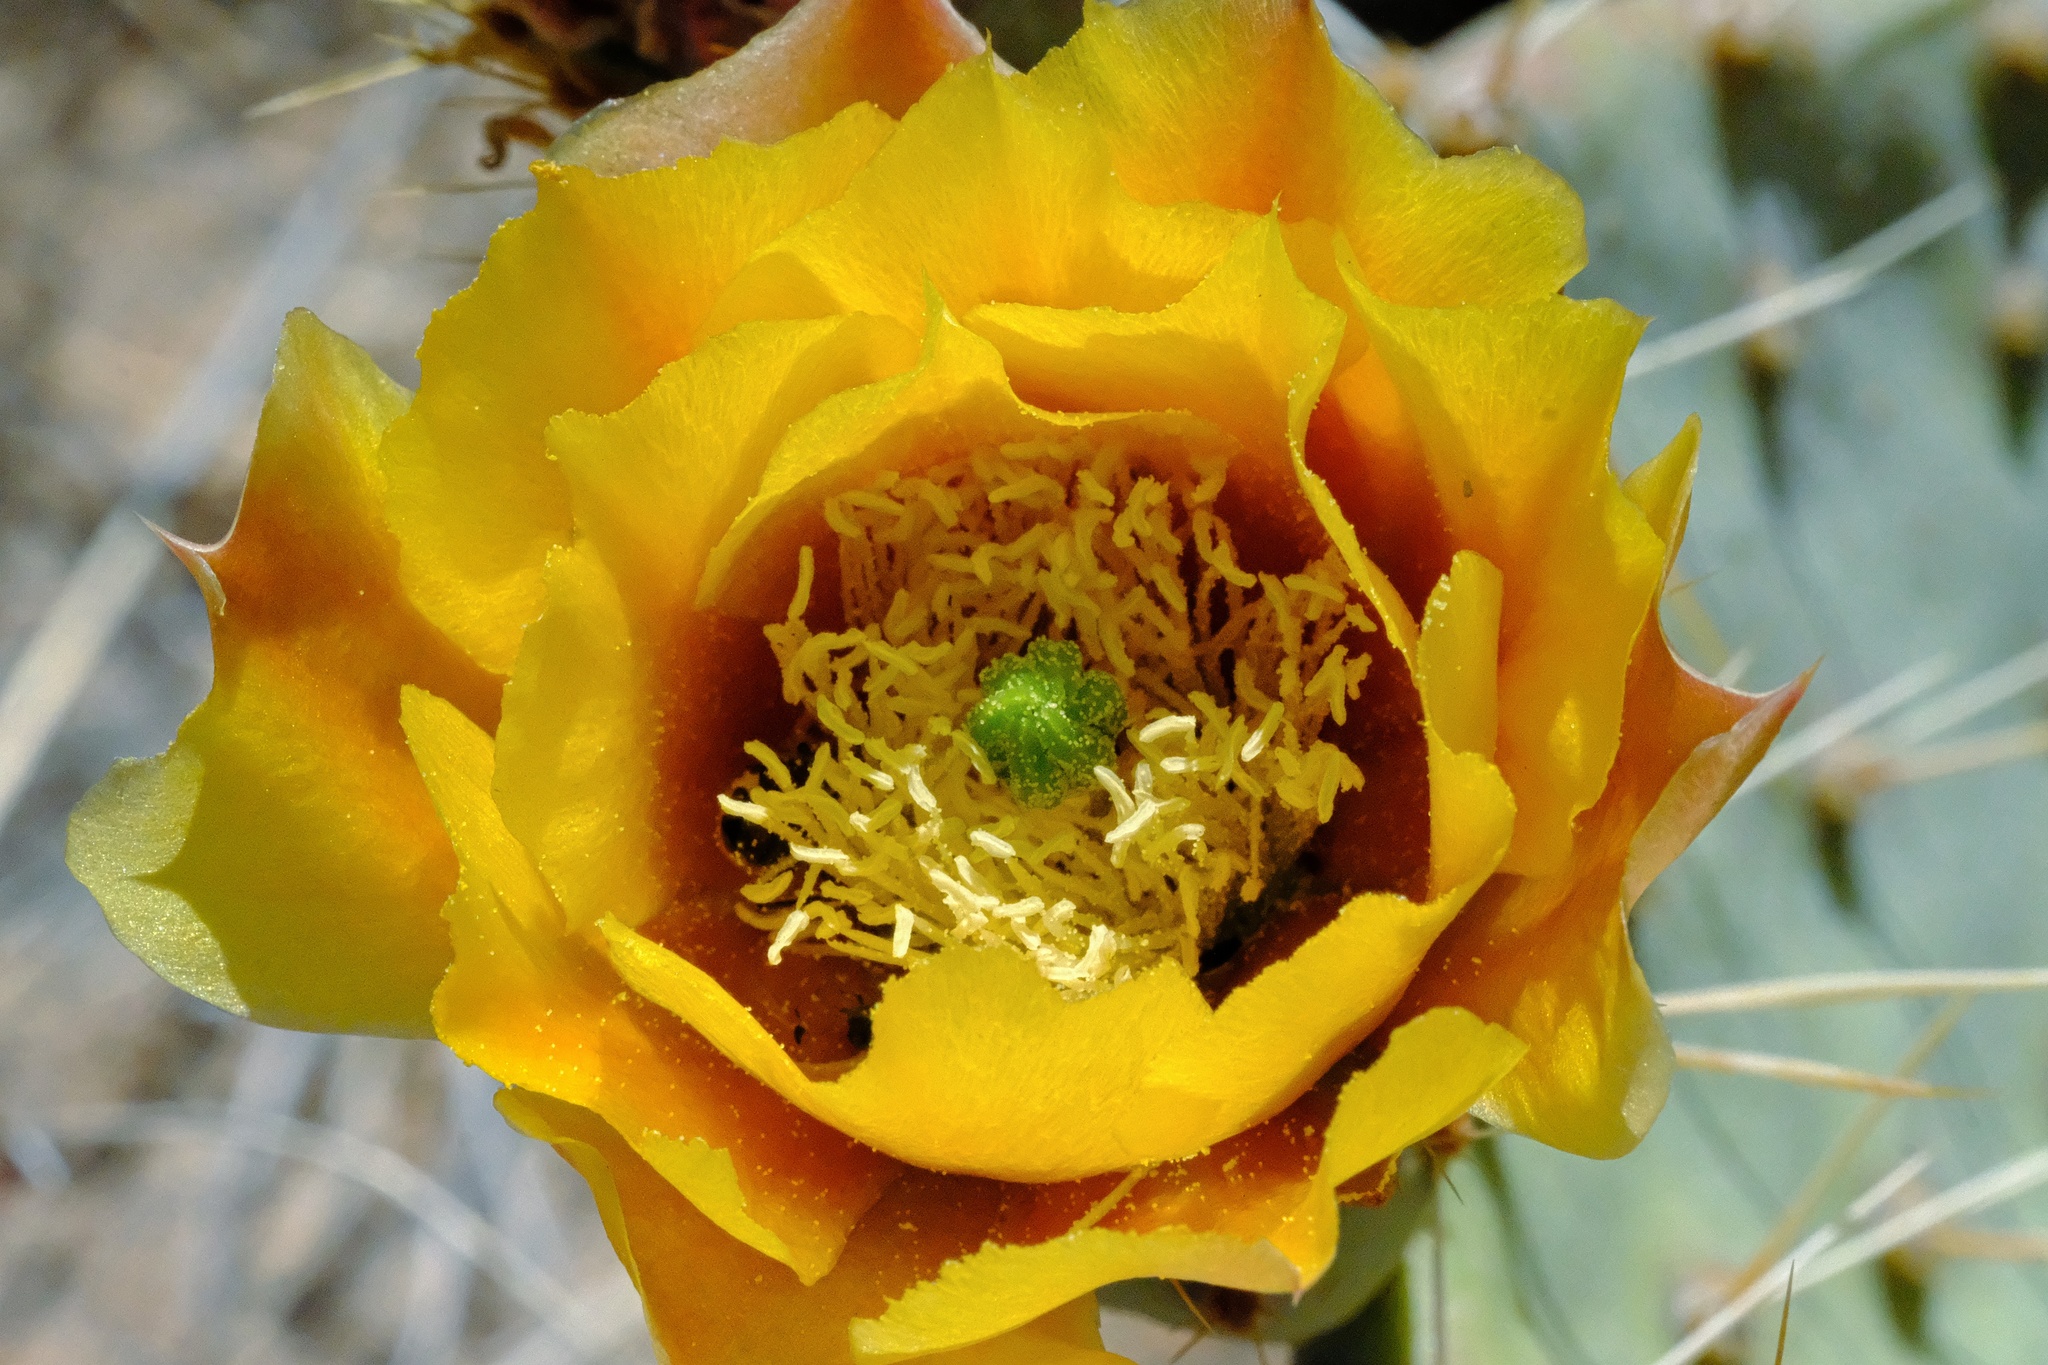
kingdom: Plantae
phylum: Tracheophyta
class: Magnoliopsida
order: Caryophyllales
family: Cactaceae
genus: Opuntia
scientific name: Opuntia phaeacantha
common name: New mexico prickly-pear
